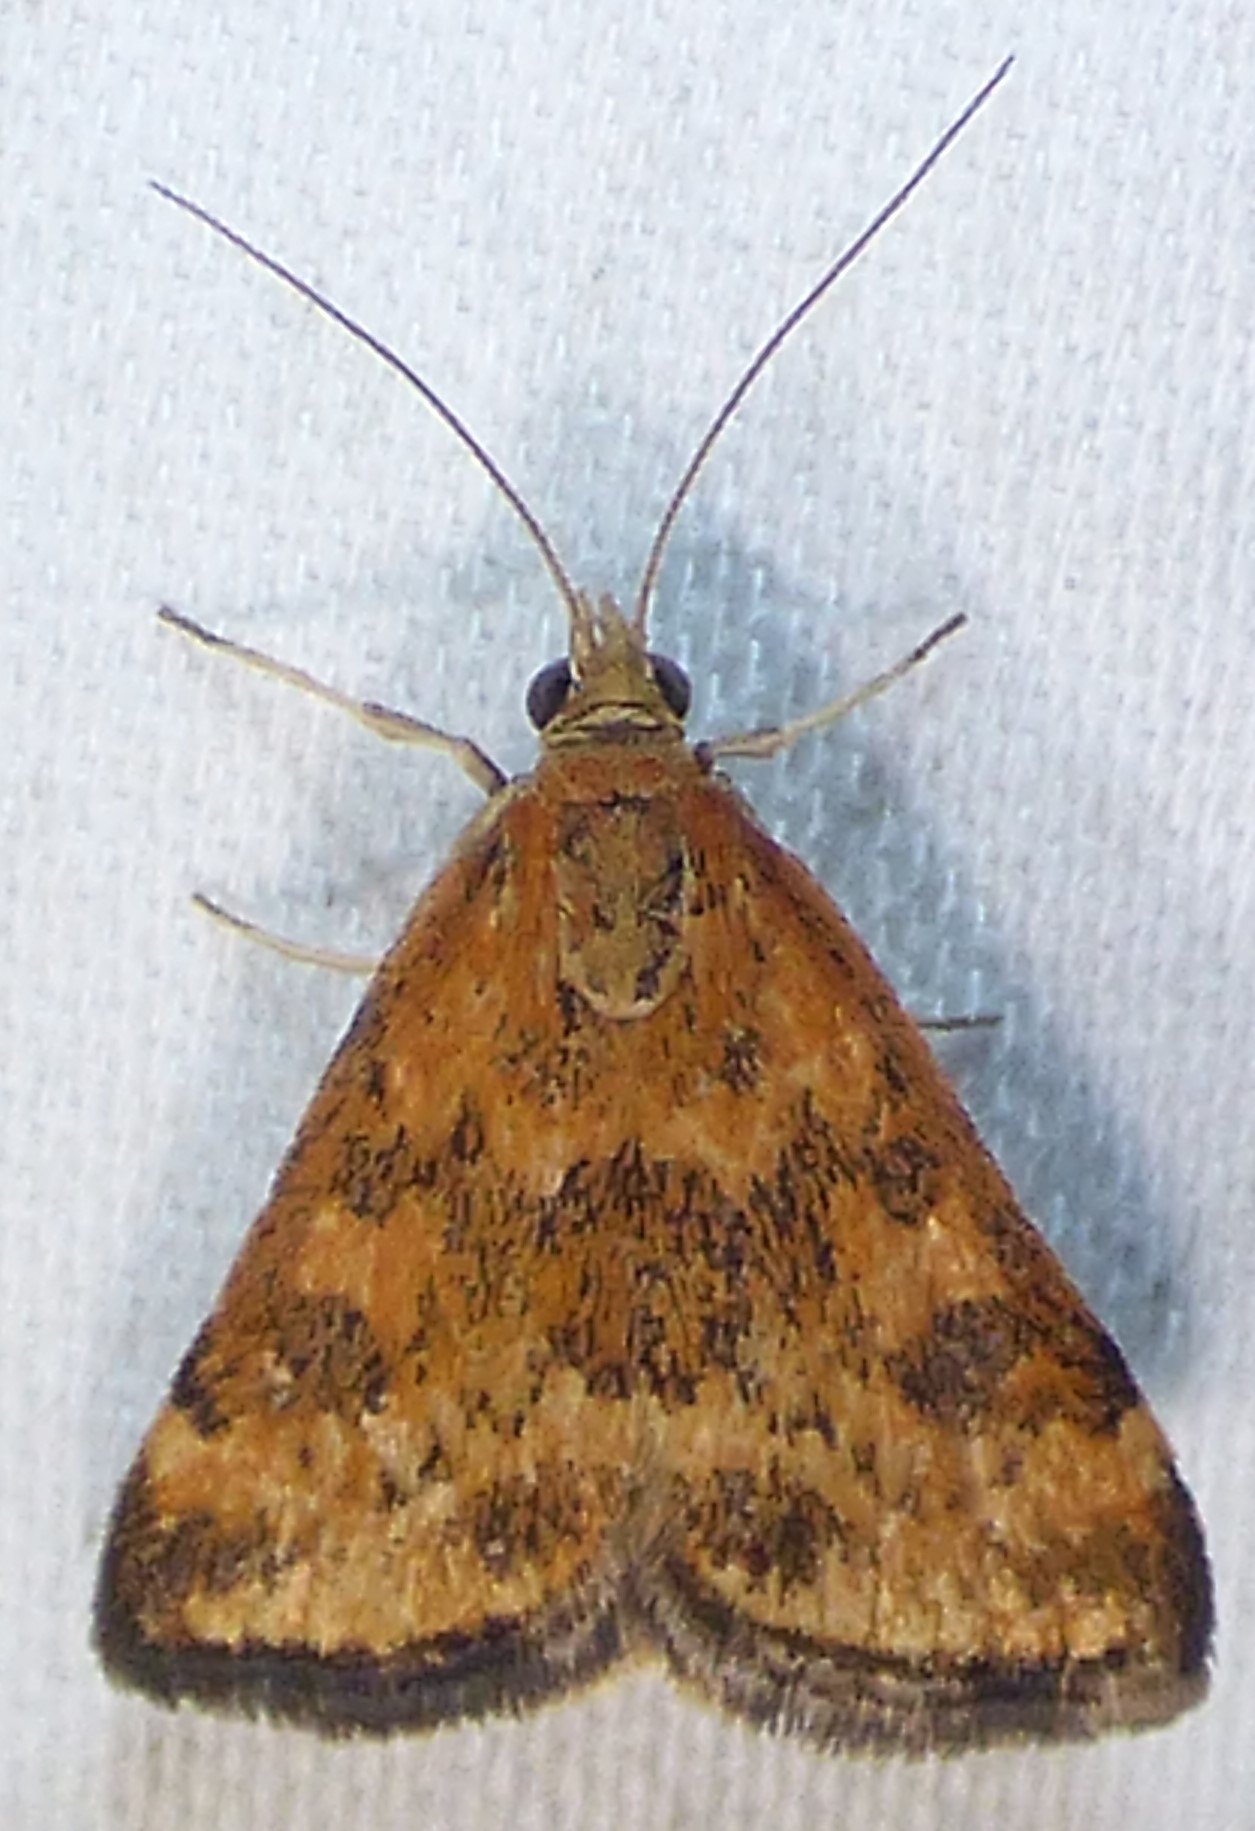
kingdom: Animalia
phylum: Arthropoda
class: Insecta
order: Lepidoptera
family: Crambidae
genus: Pyrausta
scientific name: Pyrausta subsequalis
